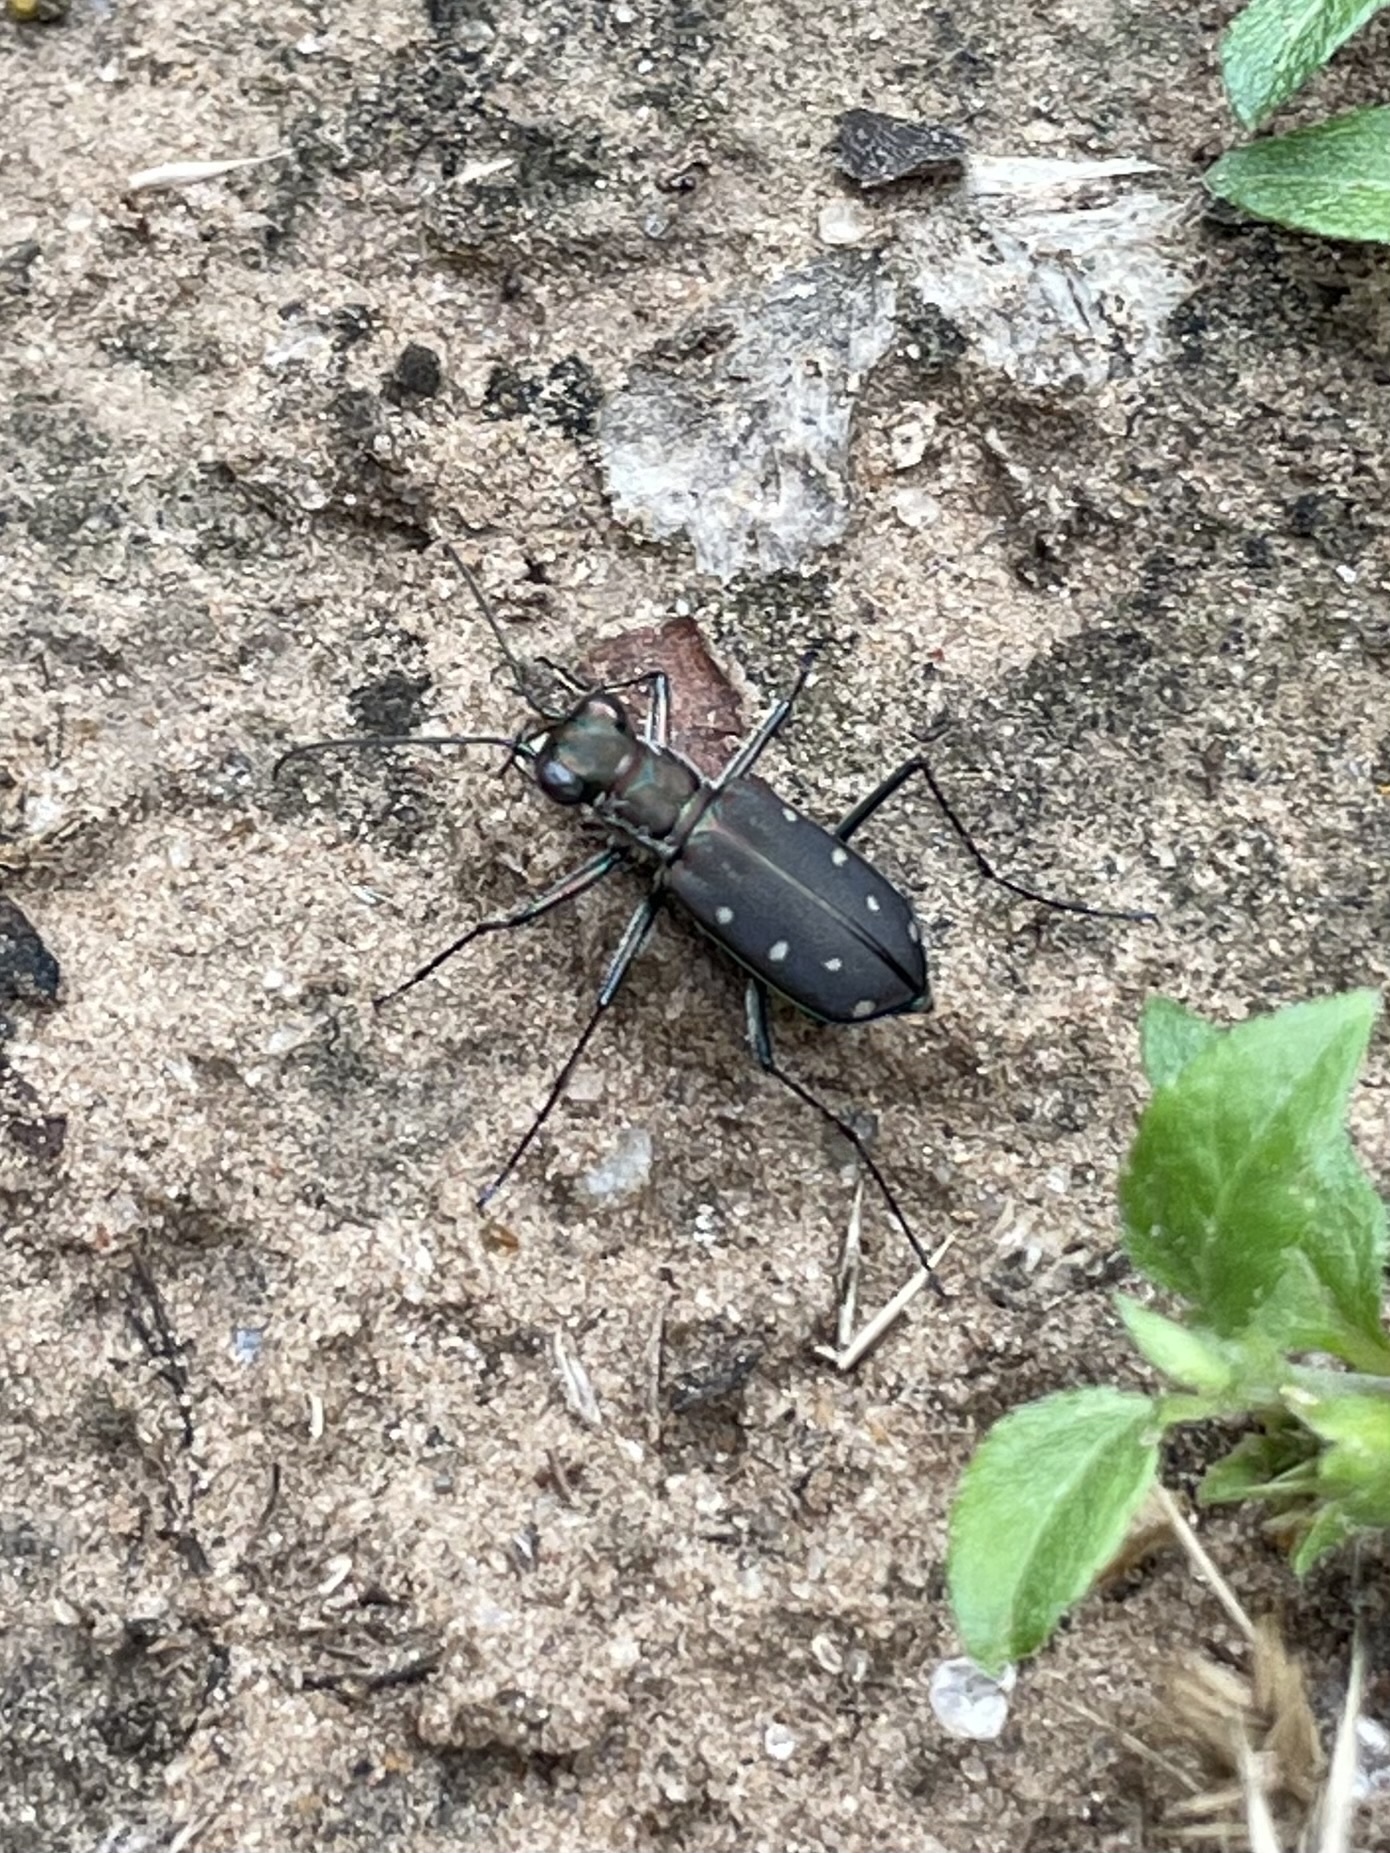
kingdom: Animalia
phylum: Arthropoda
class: Insecta
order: Coleoptera
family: Carabidae
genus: Cicindela
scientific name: Cicindela ocellata
